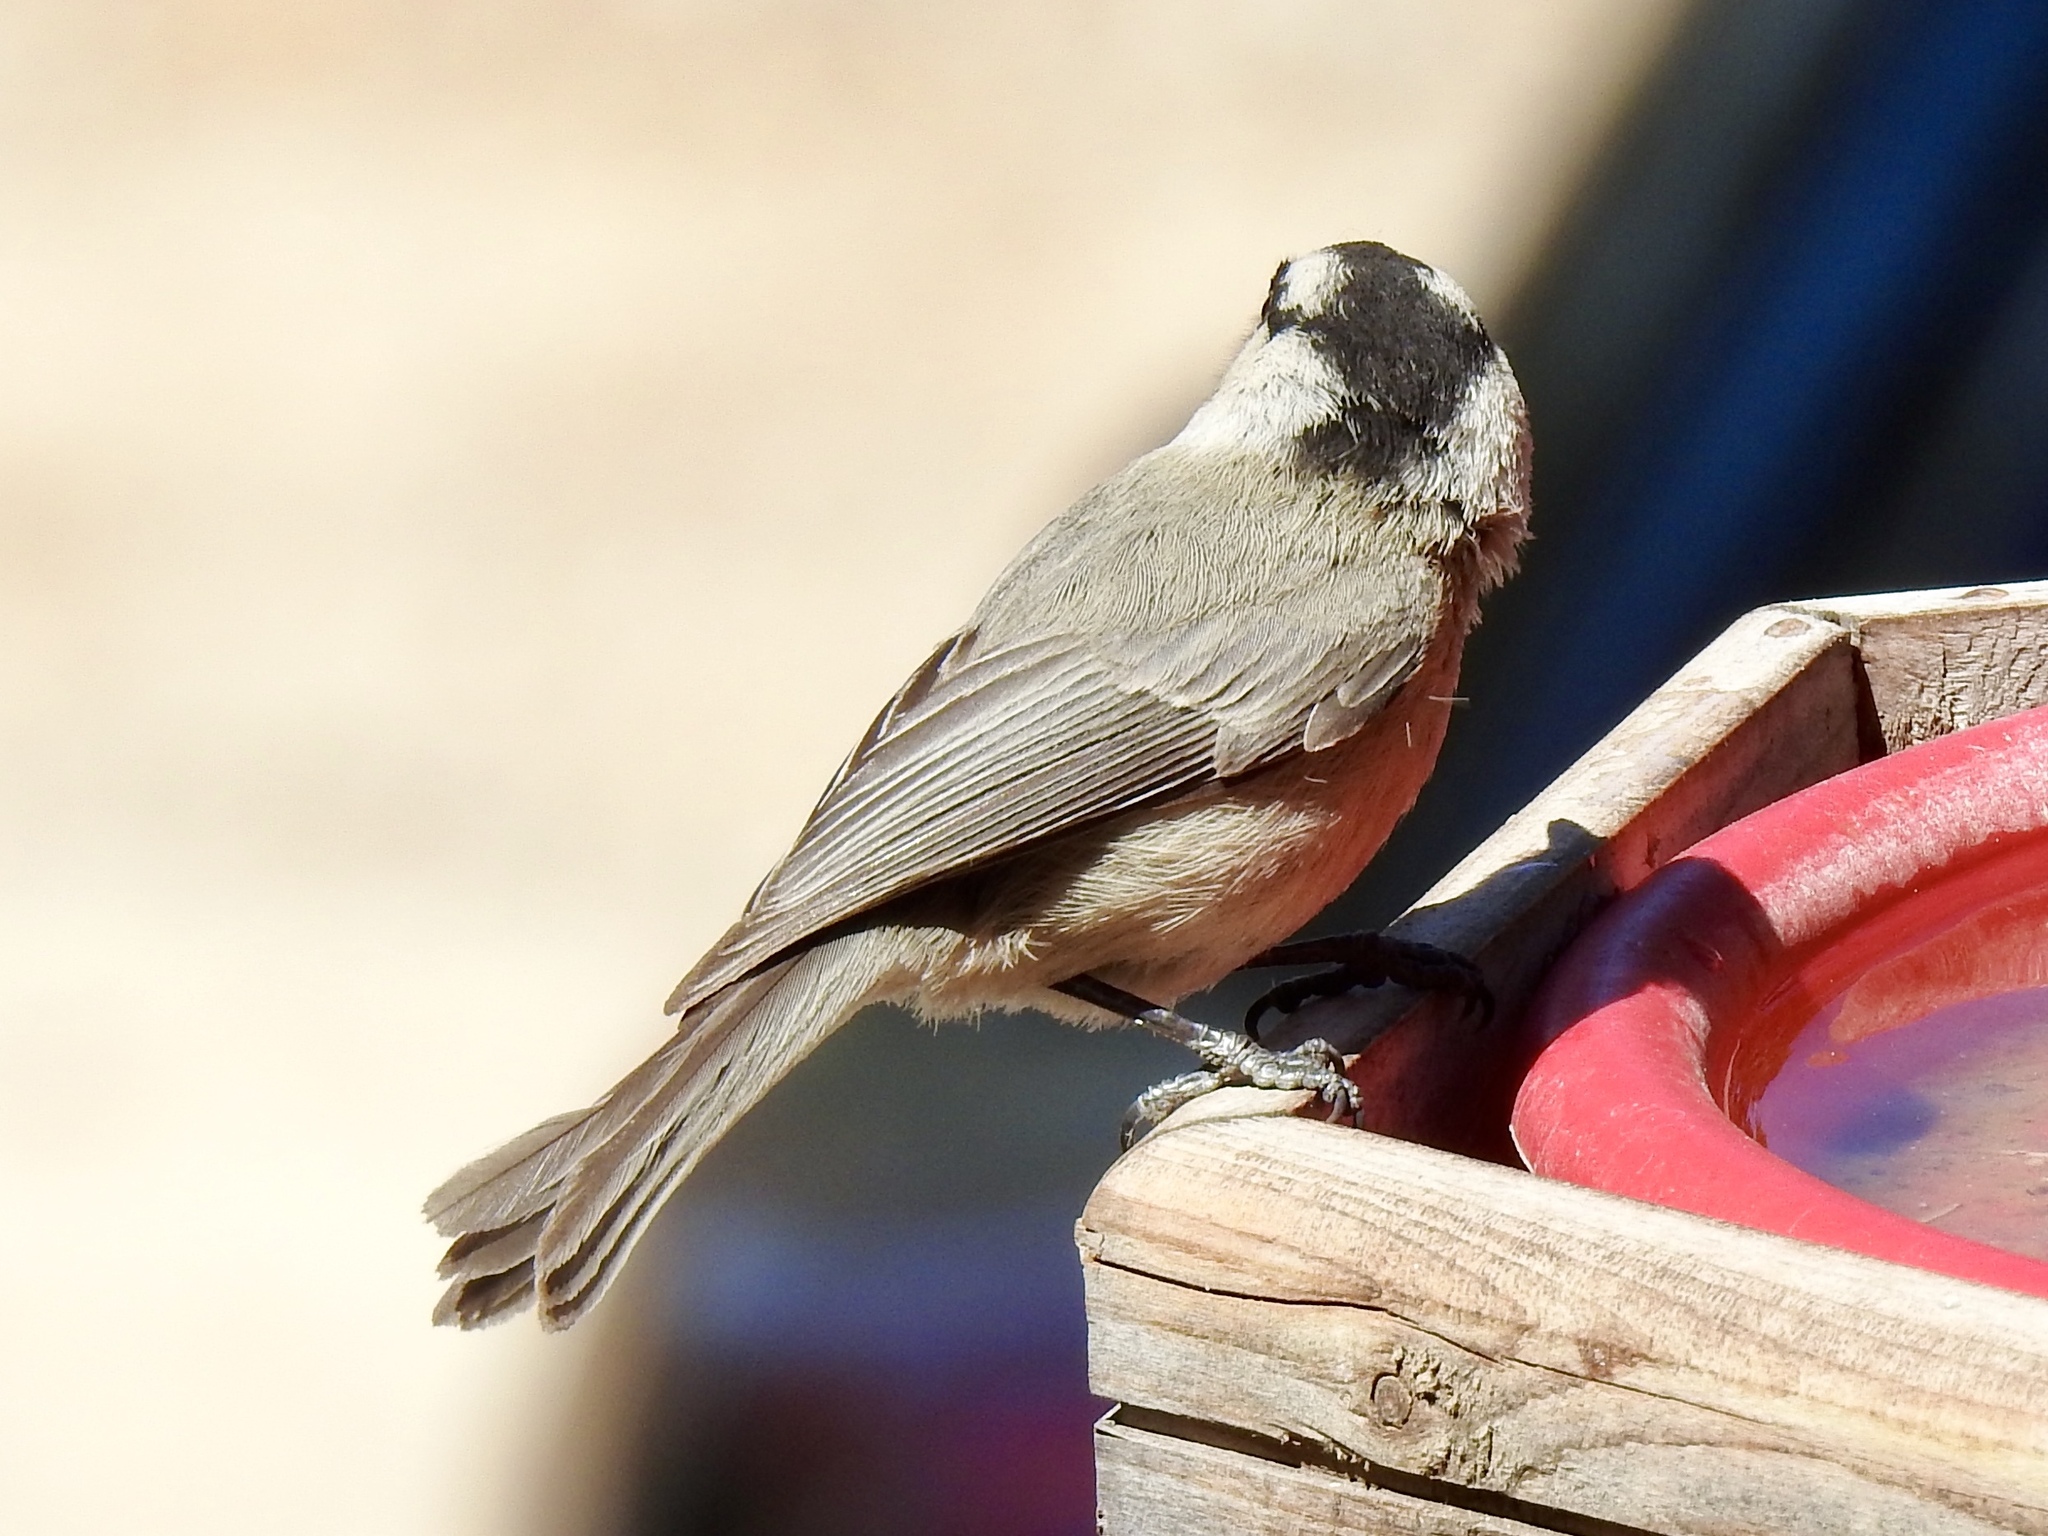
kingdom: Animalia
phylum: Chordata
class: Aves
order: Passeriformes
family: Paridae
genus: Poecile
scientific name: Poecile gambeli
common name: Mountain chickadee
